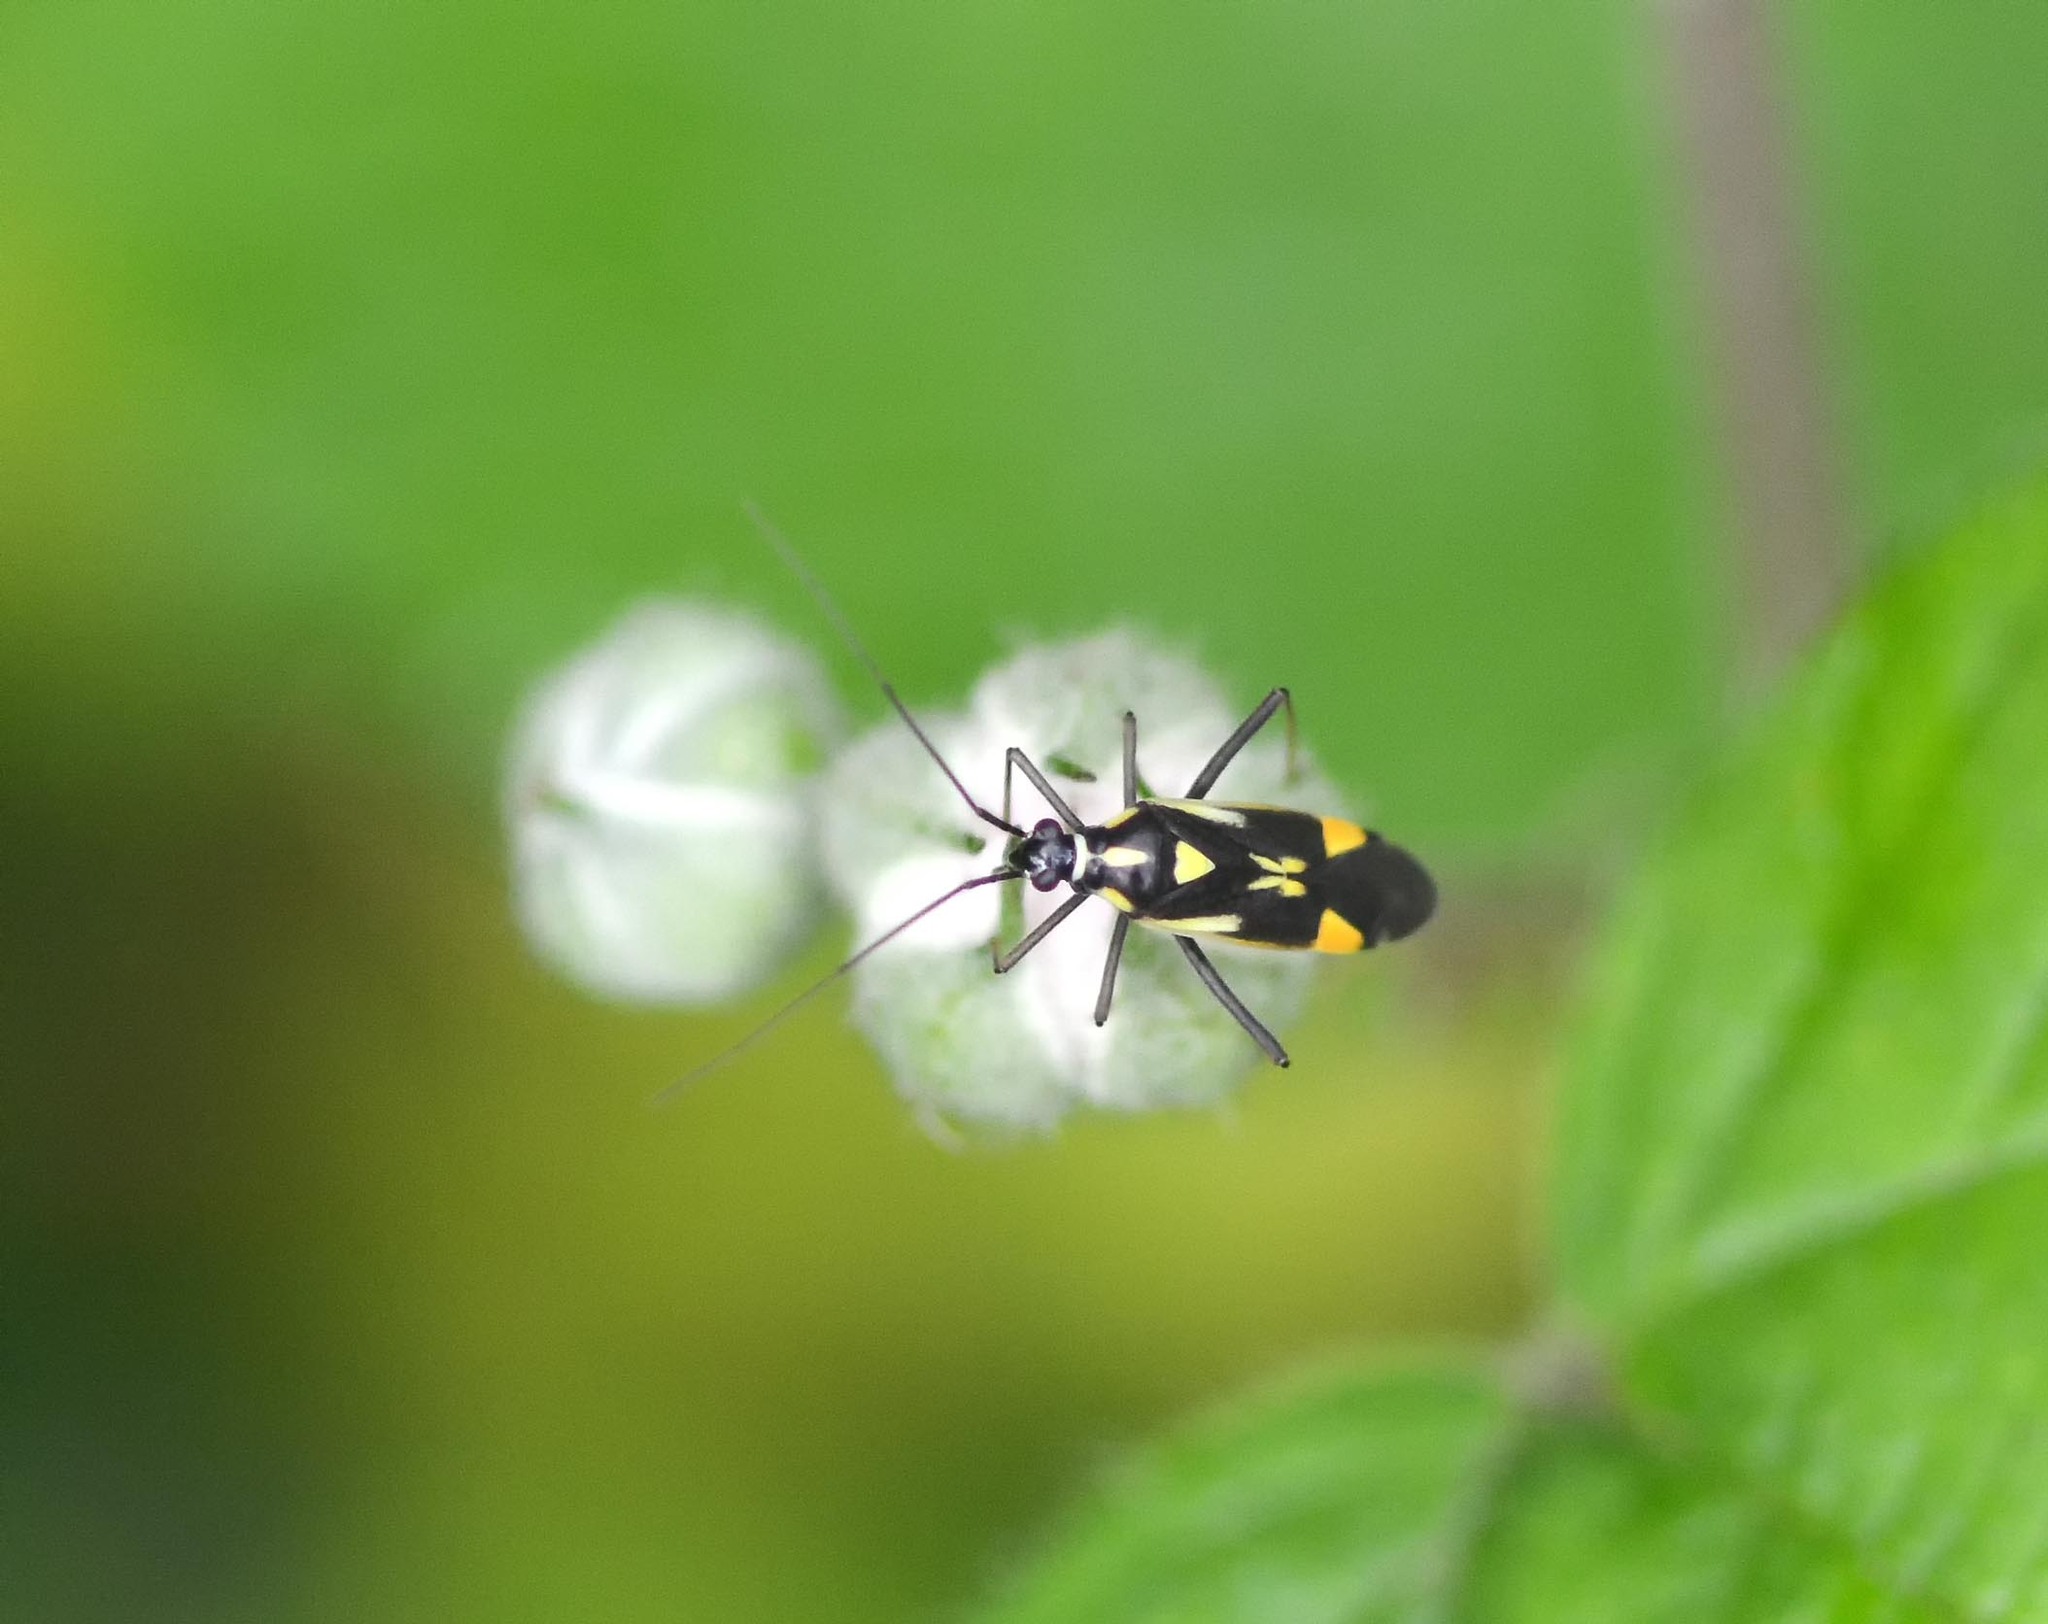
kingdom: Animalia
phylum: Arthropoda
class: Insecta
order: Hemiptera
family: Miridae
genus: Grypocoris
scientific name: Grypocoris stysi
